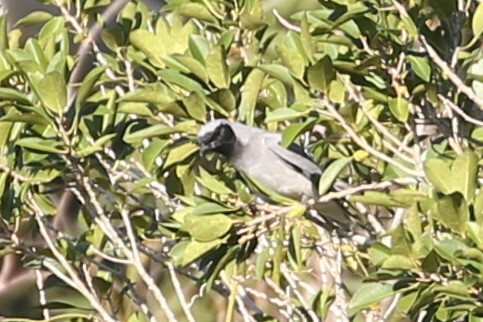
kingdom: Animalia
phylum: Chordata
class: Aves
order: Passeriformes
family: Campephagidae
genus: Coracina
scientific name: Coracina novaehollandiae
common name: Black-faced cuckooshrike
